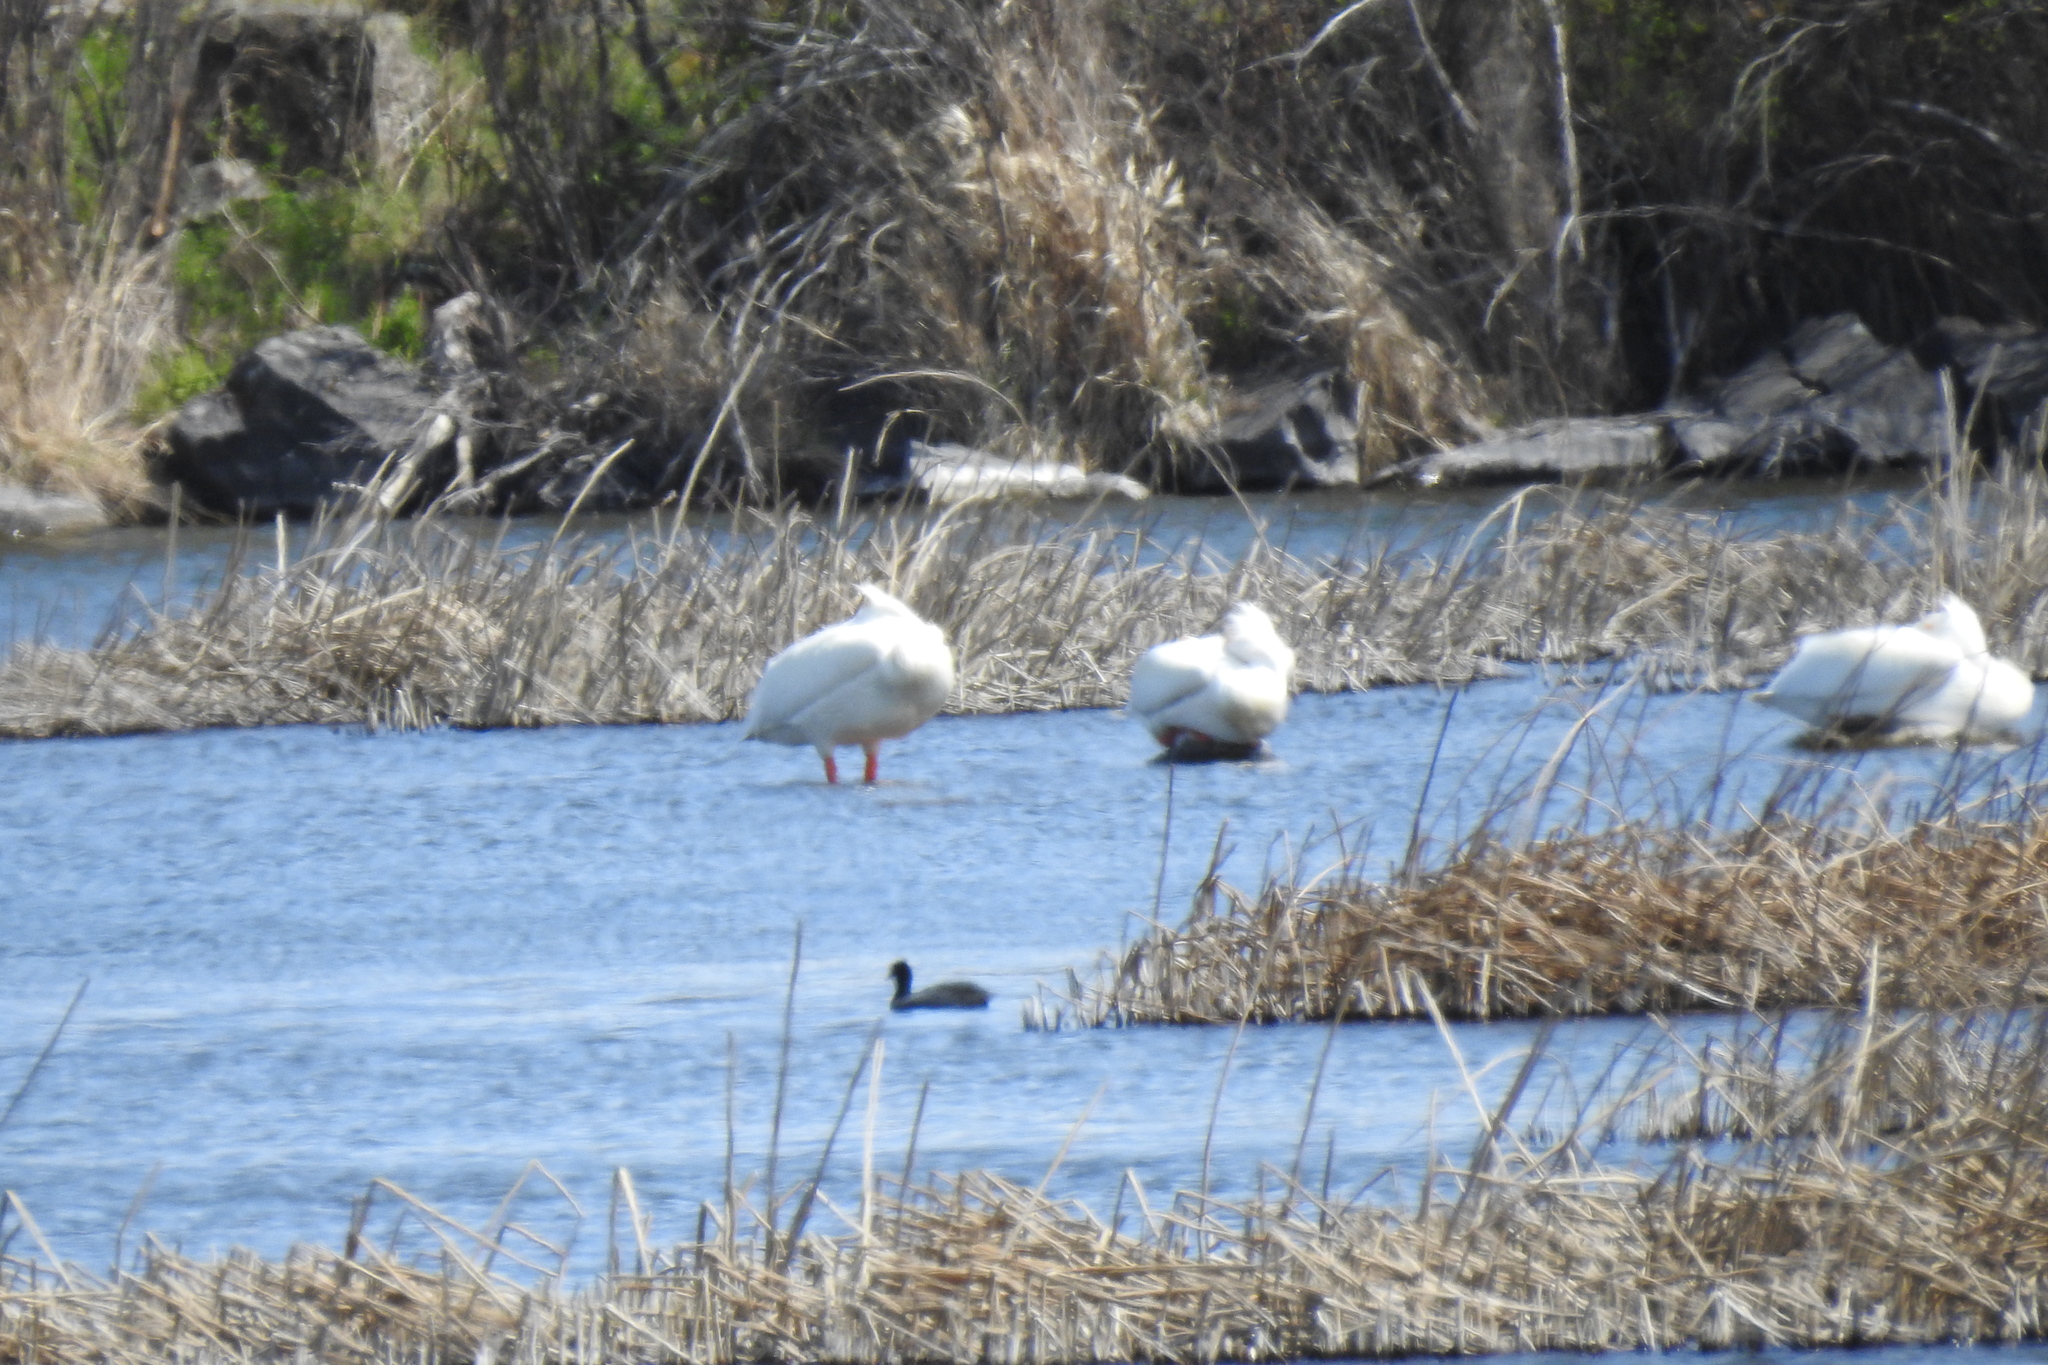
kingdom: Animalia
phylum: Chordata
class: Aves
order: Gruiformes
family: Rallidae
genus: Fulica
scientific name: Fulica americana
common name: American coot
